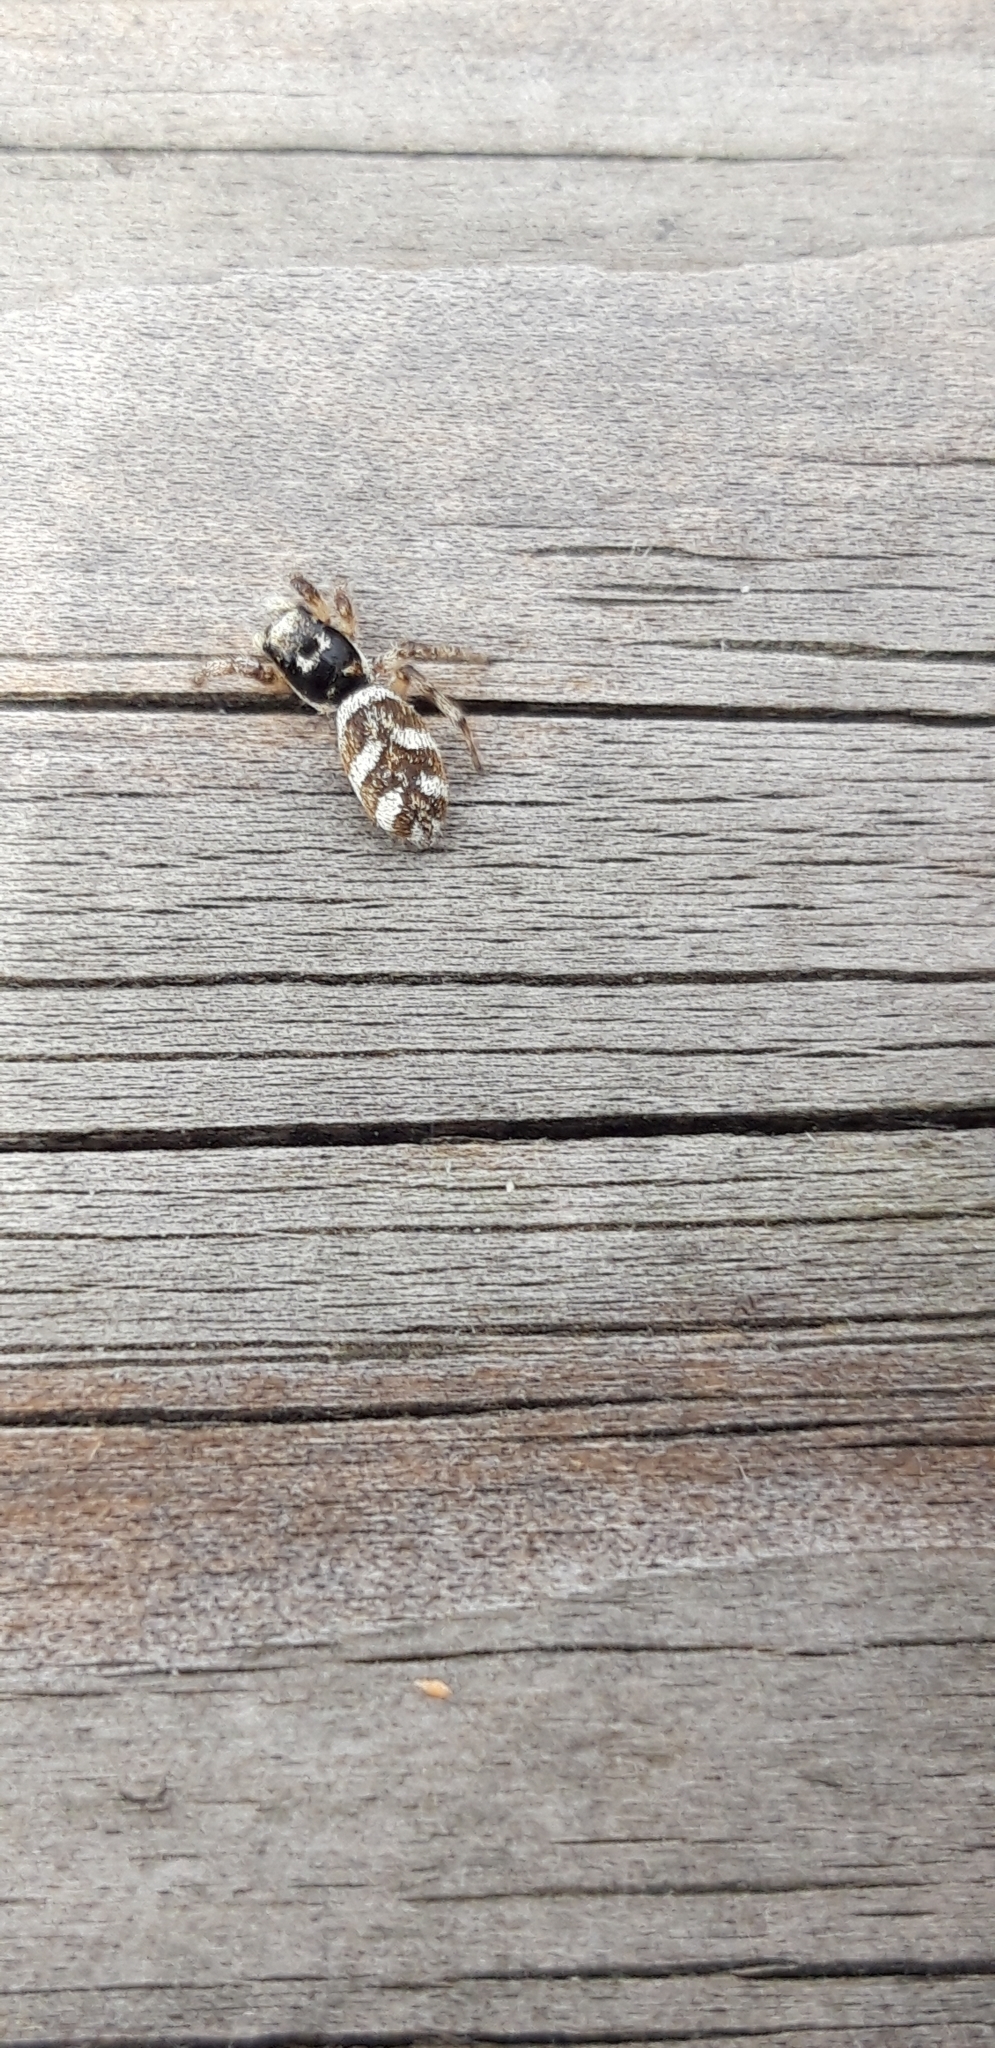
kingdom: Animalia
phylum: Arthropoda
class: Arachnida
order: Araneae
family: Salticidae
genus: Salticus
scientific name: Salticus scenicus
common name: Zebra jumper
